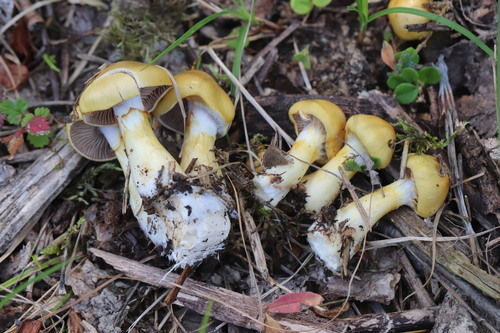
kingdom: Fungi
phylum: Basidiomycota
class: Agaricomycetes
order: Agaricales
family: Cortinariaceae
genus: Cortinarius
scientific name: Cortinarius delibutus
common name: Yellow webcap
